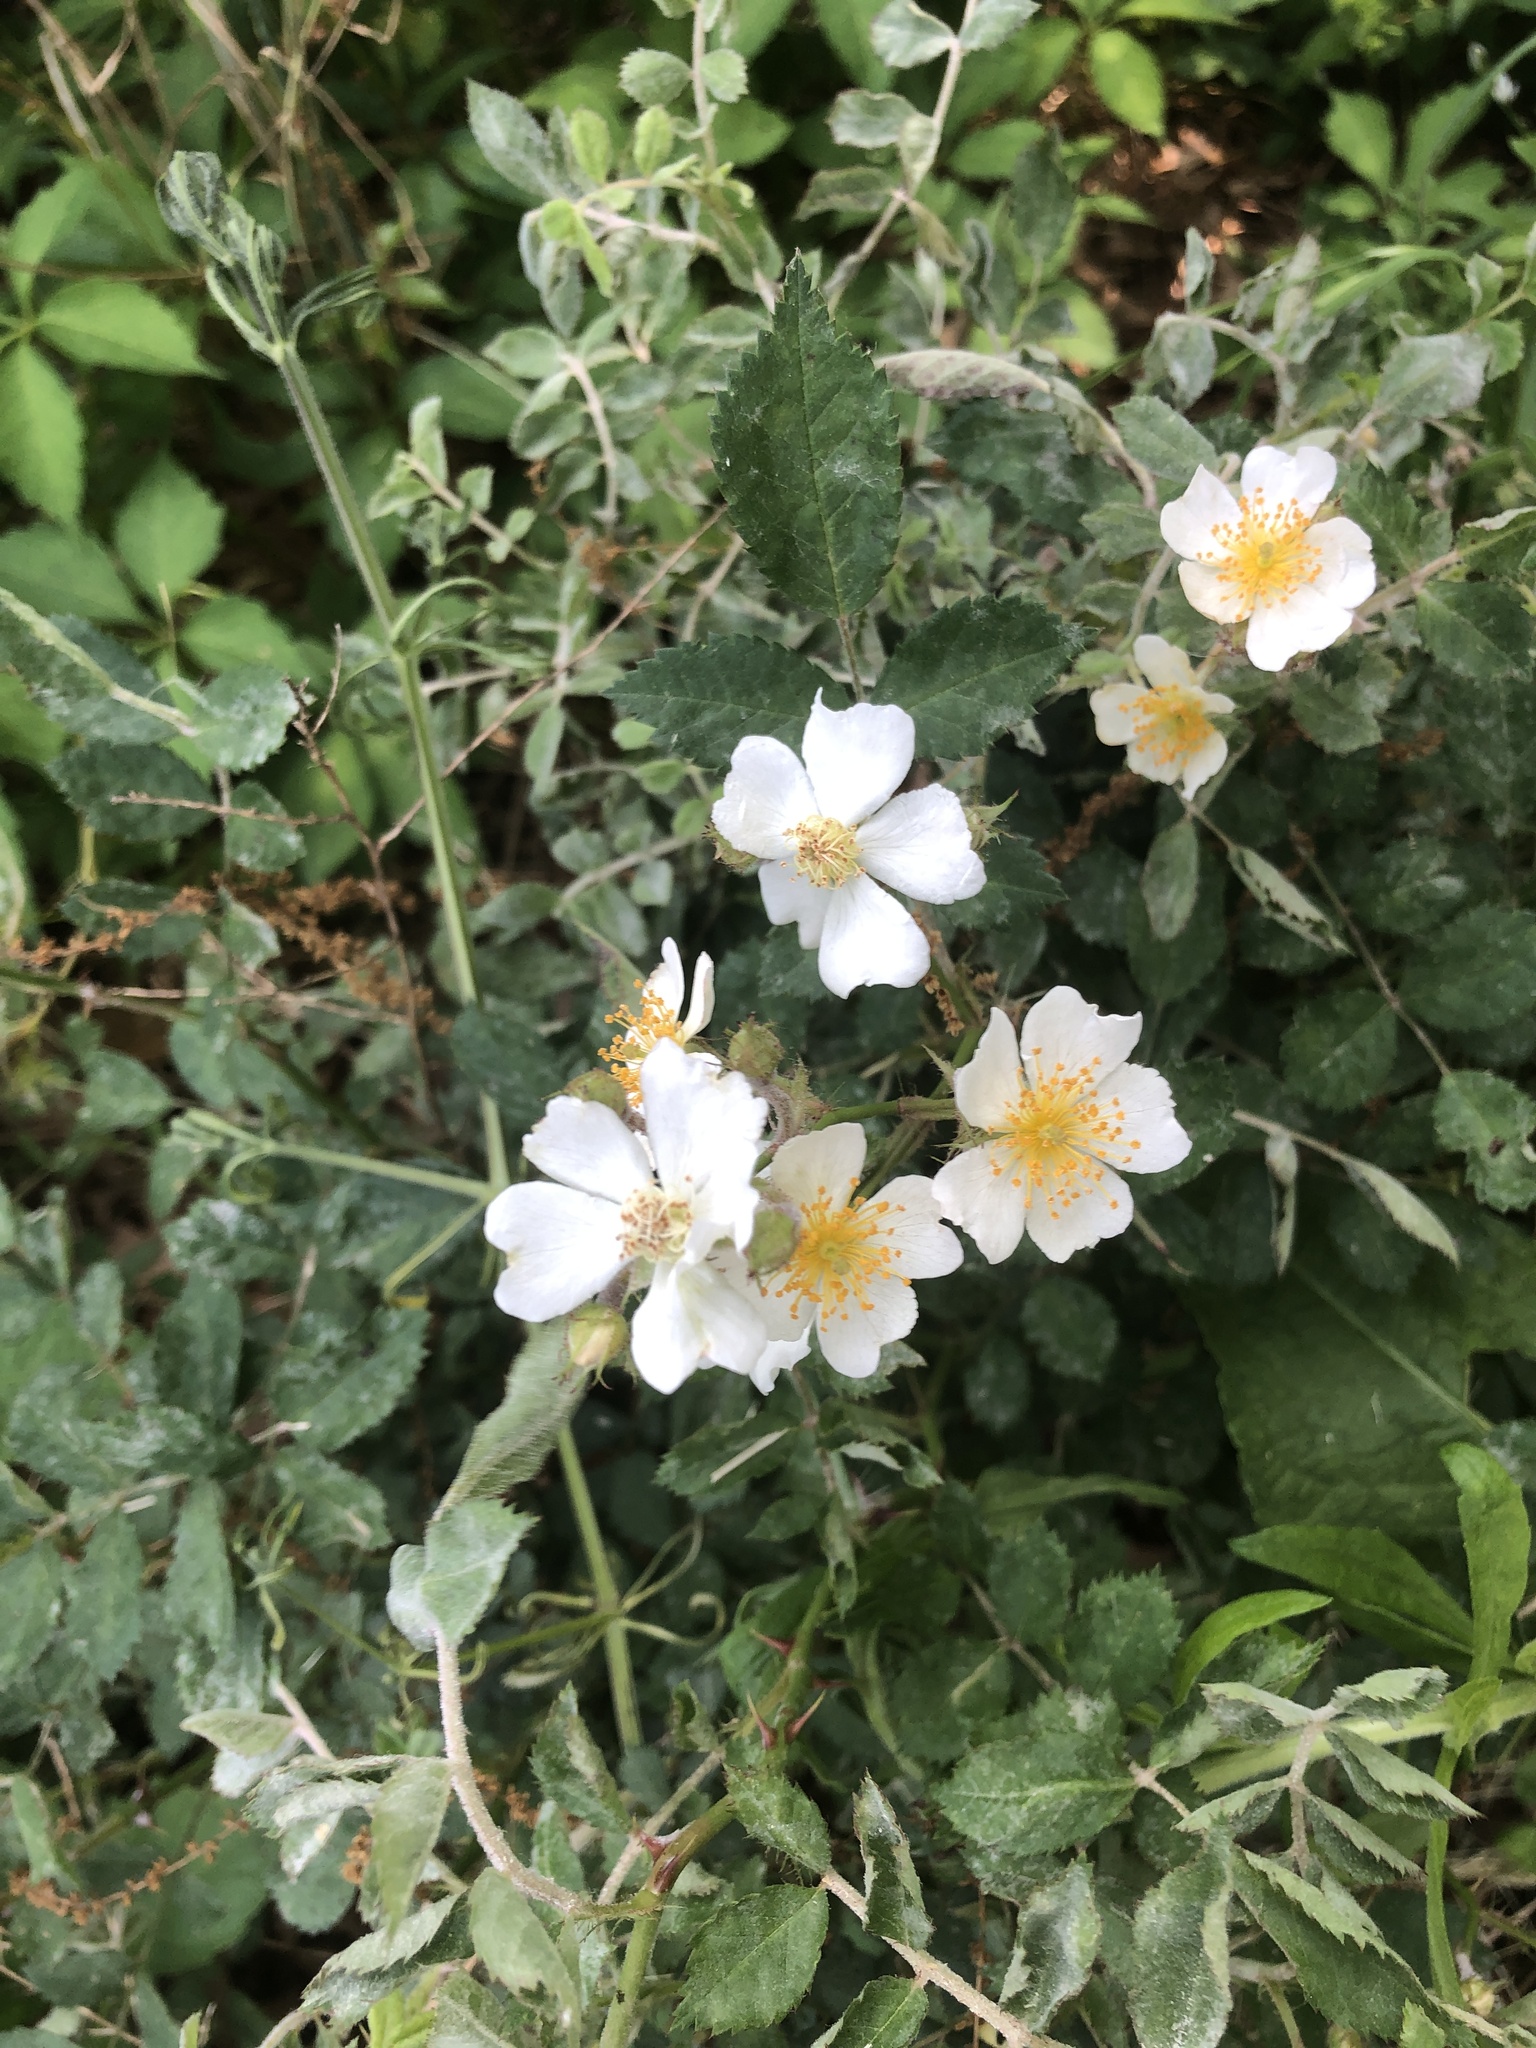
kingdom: Plantae
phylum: Tracheophyta
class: Magnoliopsida
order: Rosales
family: Rosaceae
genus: Rosa
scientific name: Rosa multiflora
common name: Multiflora rose
